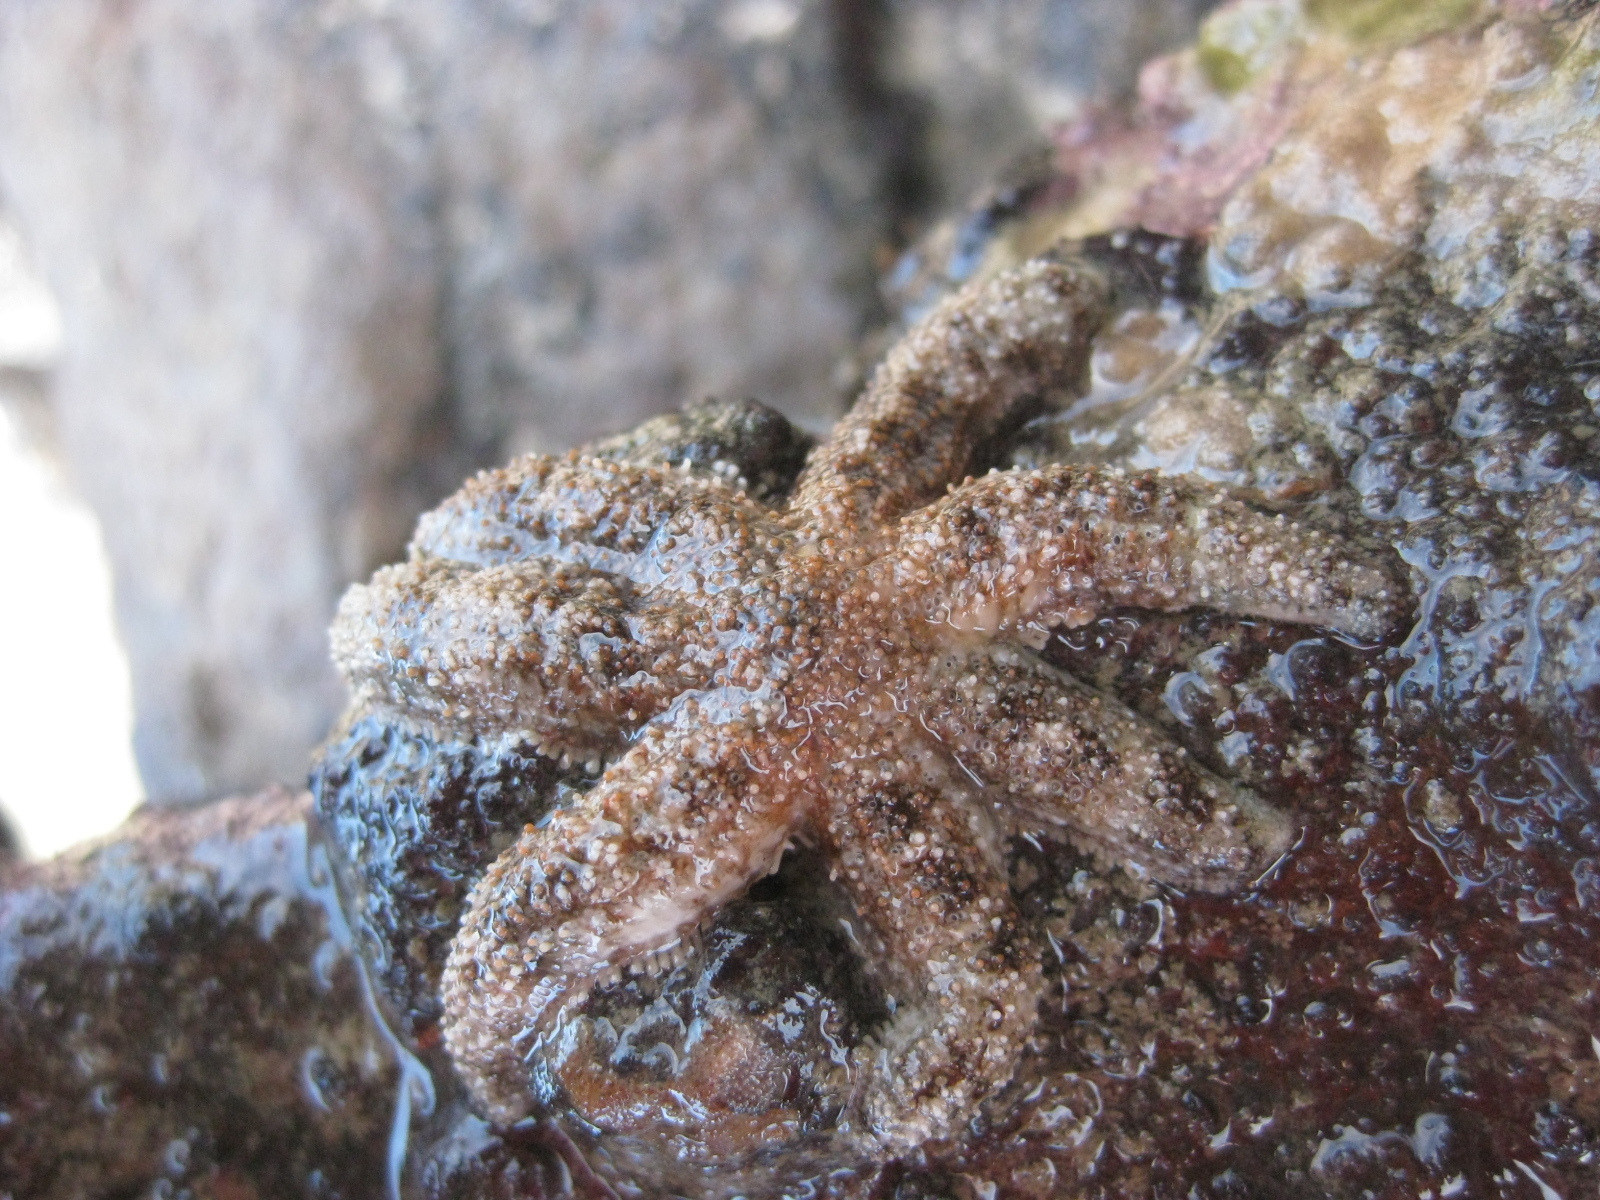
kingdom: Animalia
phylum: Echinodermata
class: Asteroidea
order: Forcipulatida
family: Stichasteridae
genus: Allostichaster
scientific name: Allostichaster polyplax
